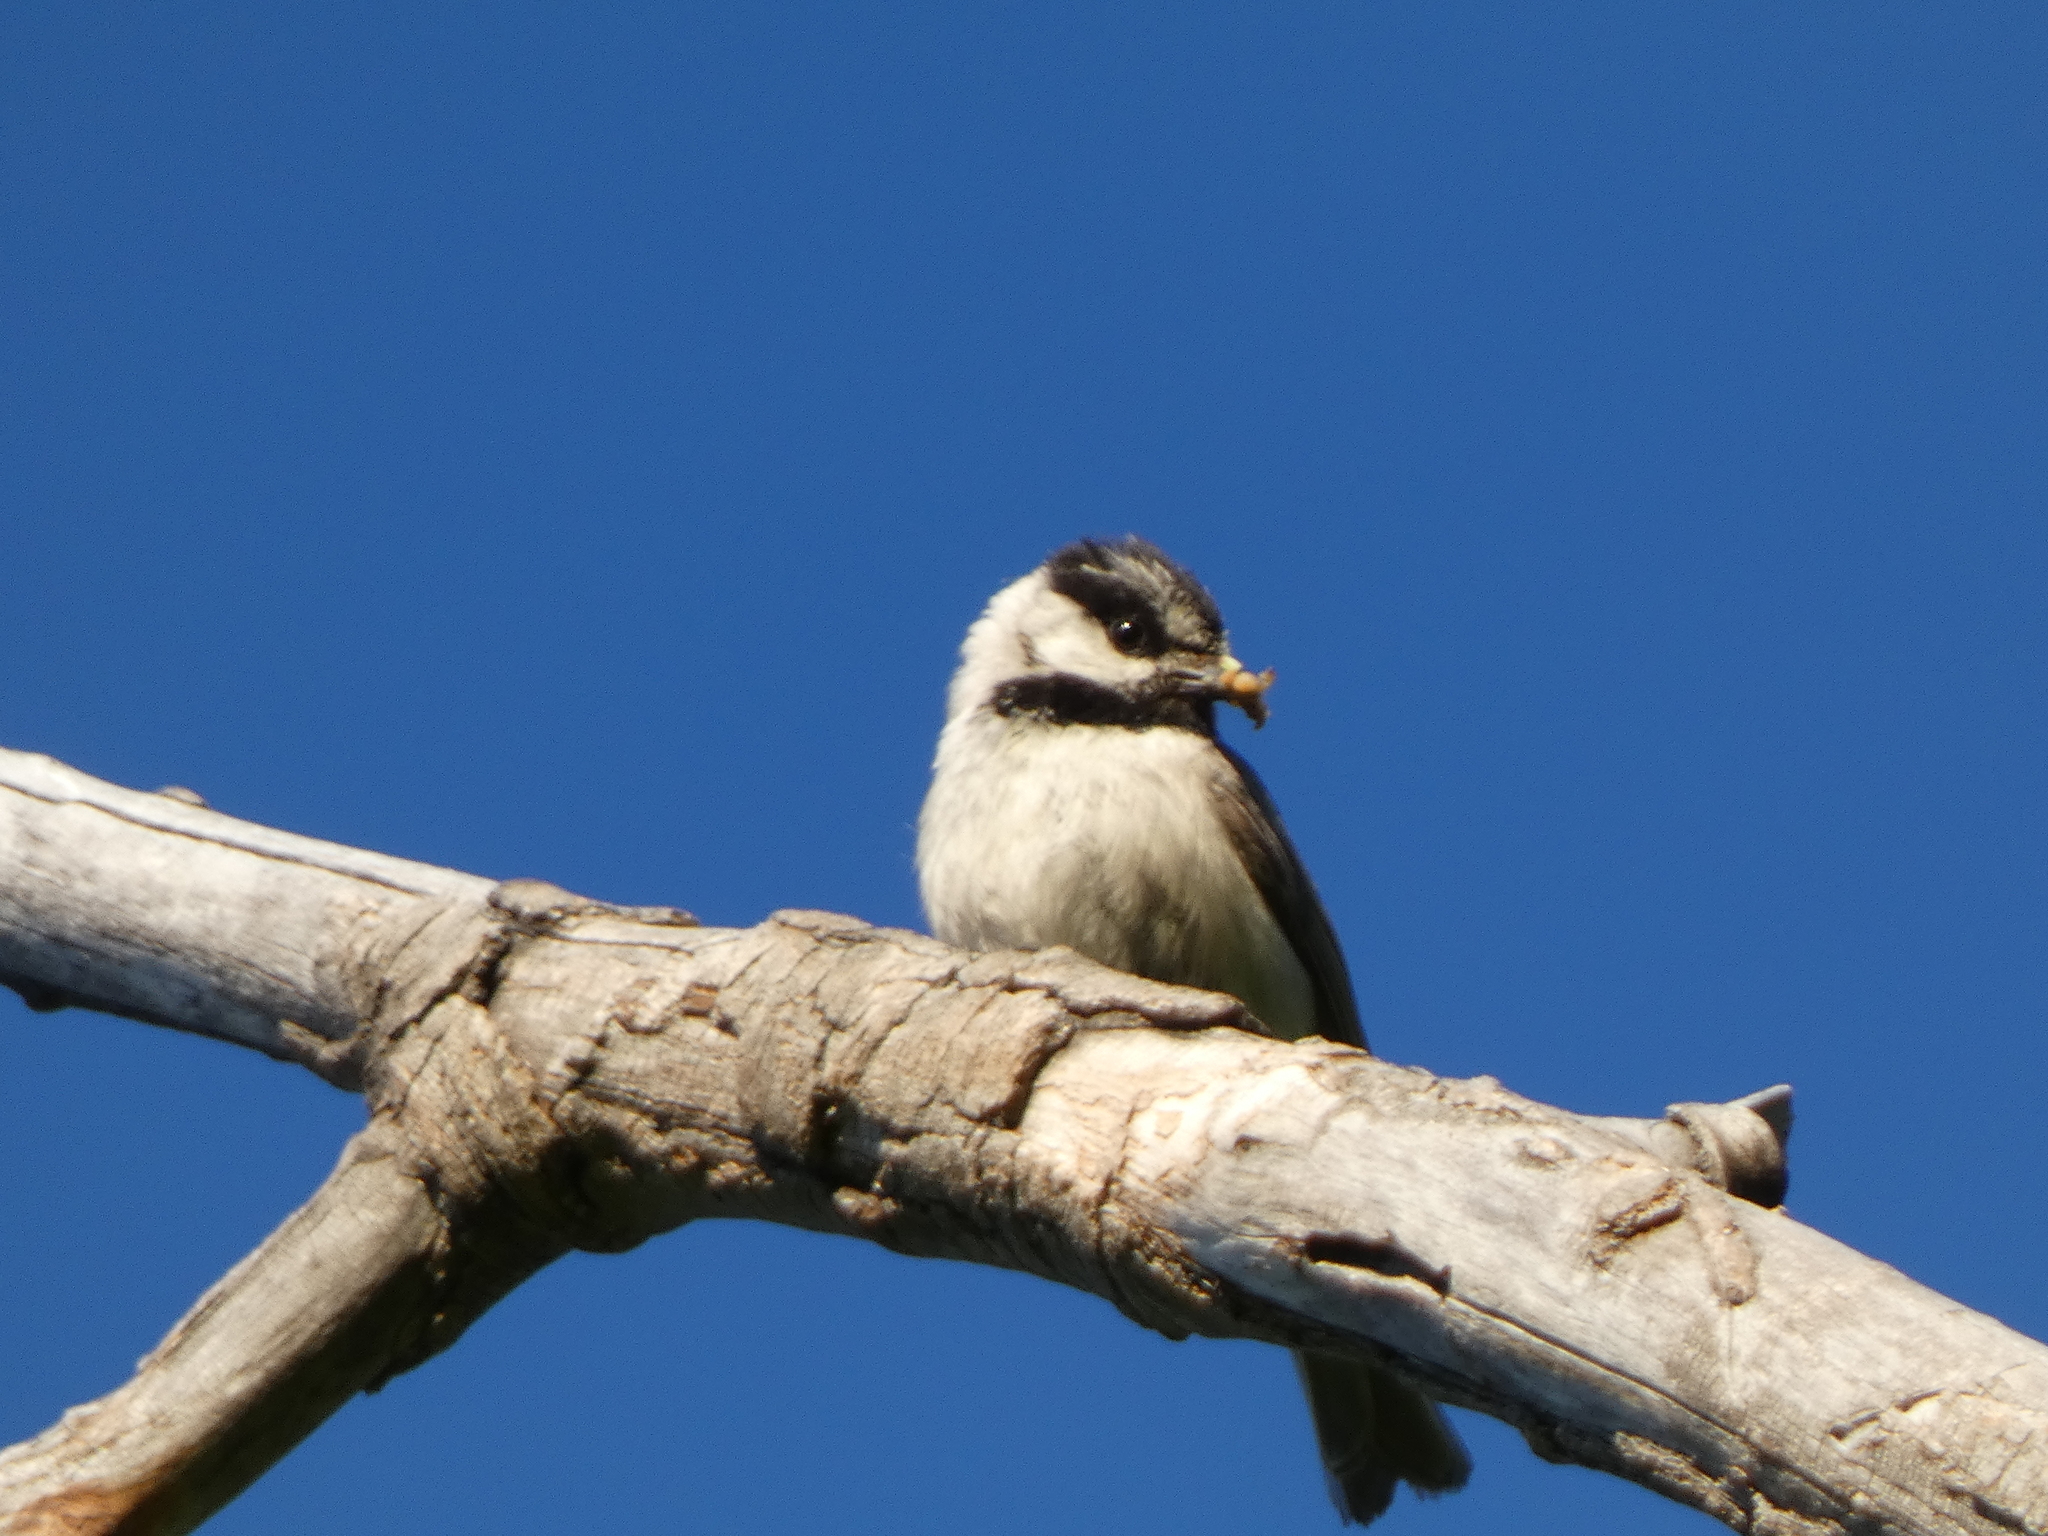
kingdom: Animalia
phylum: Chordata
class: Aves
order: Passeriformes
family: Paridae
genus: Poecile
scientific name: Poecile gambeli
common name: Mountain chickadee
